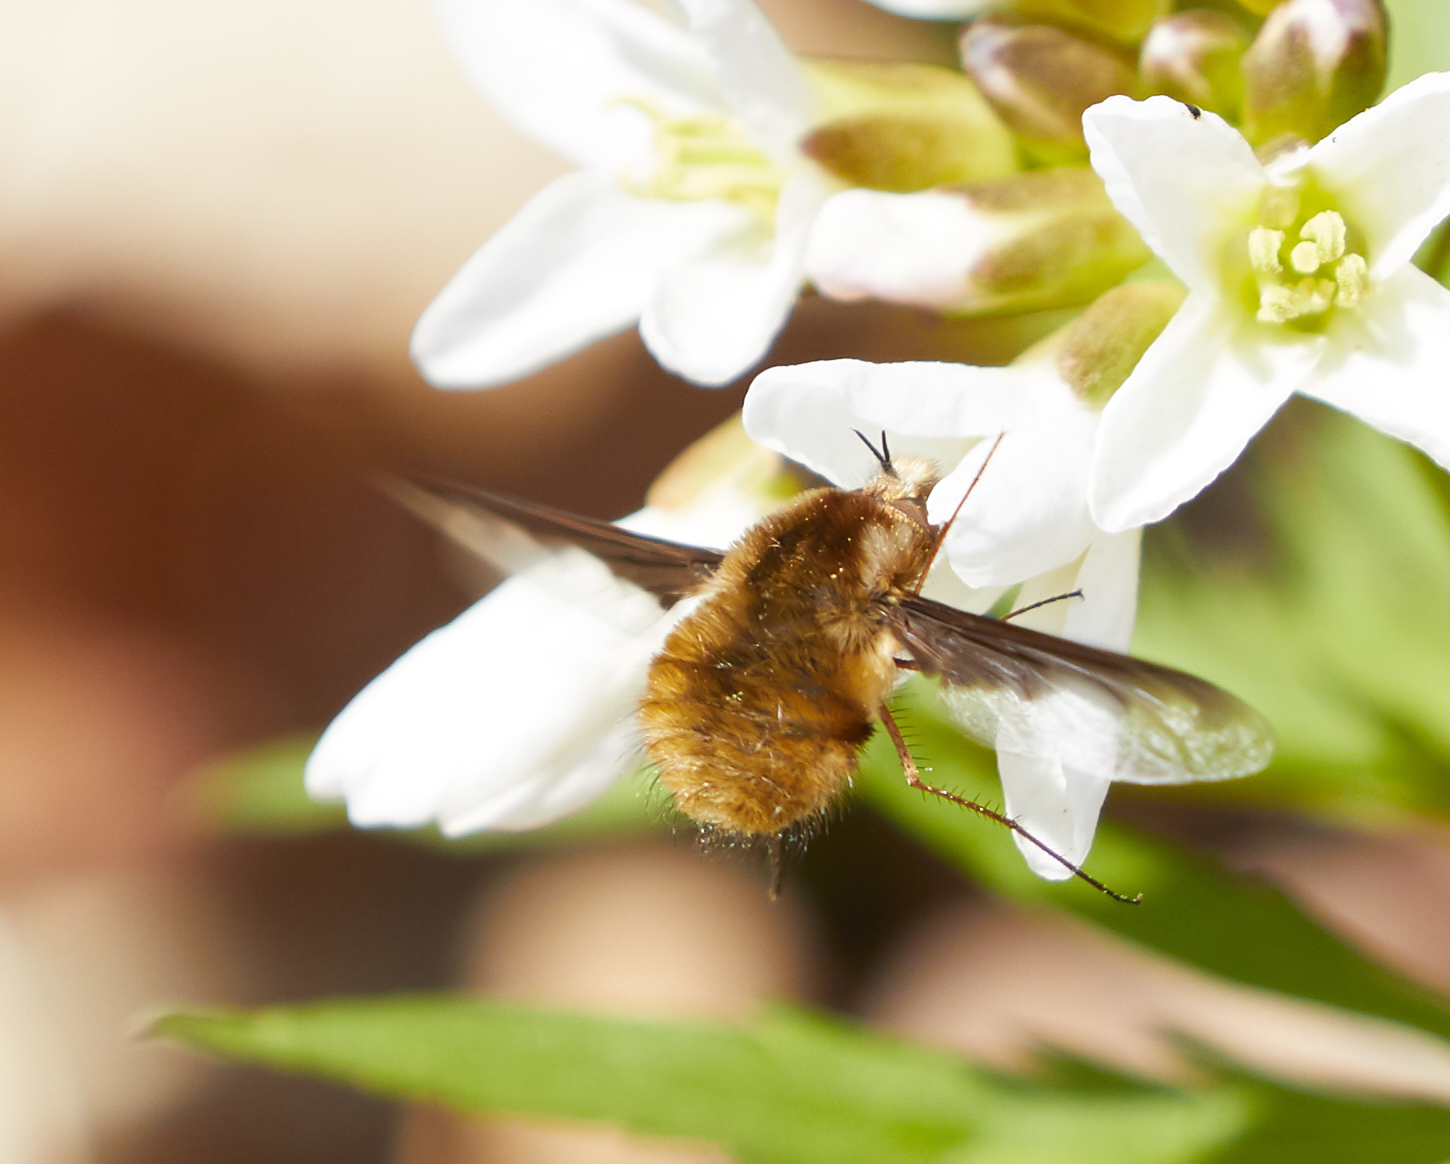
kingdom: Animalia
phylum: Arthropoda
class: Insecta
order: Diptera
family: Bombyliidae
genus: Bombylius
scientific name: Bombylius major
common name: Bee fly
